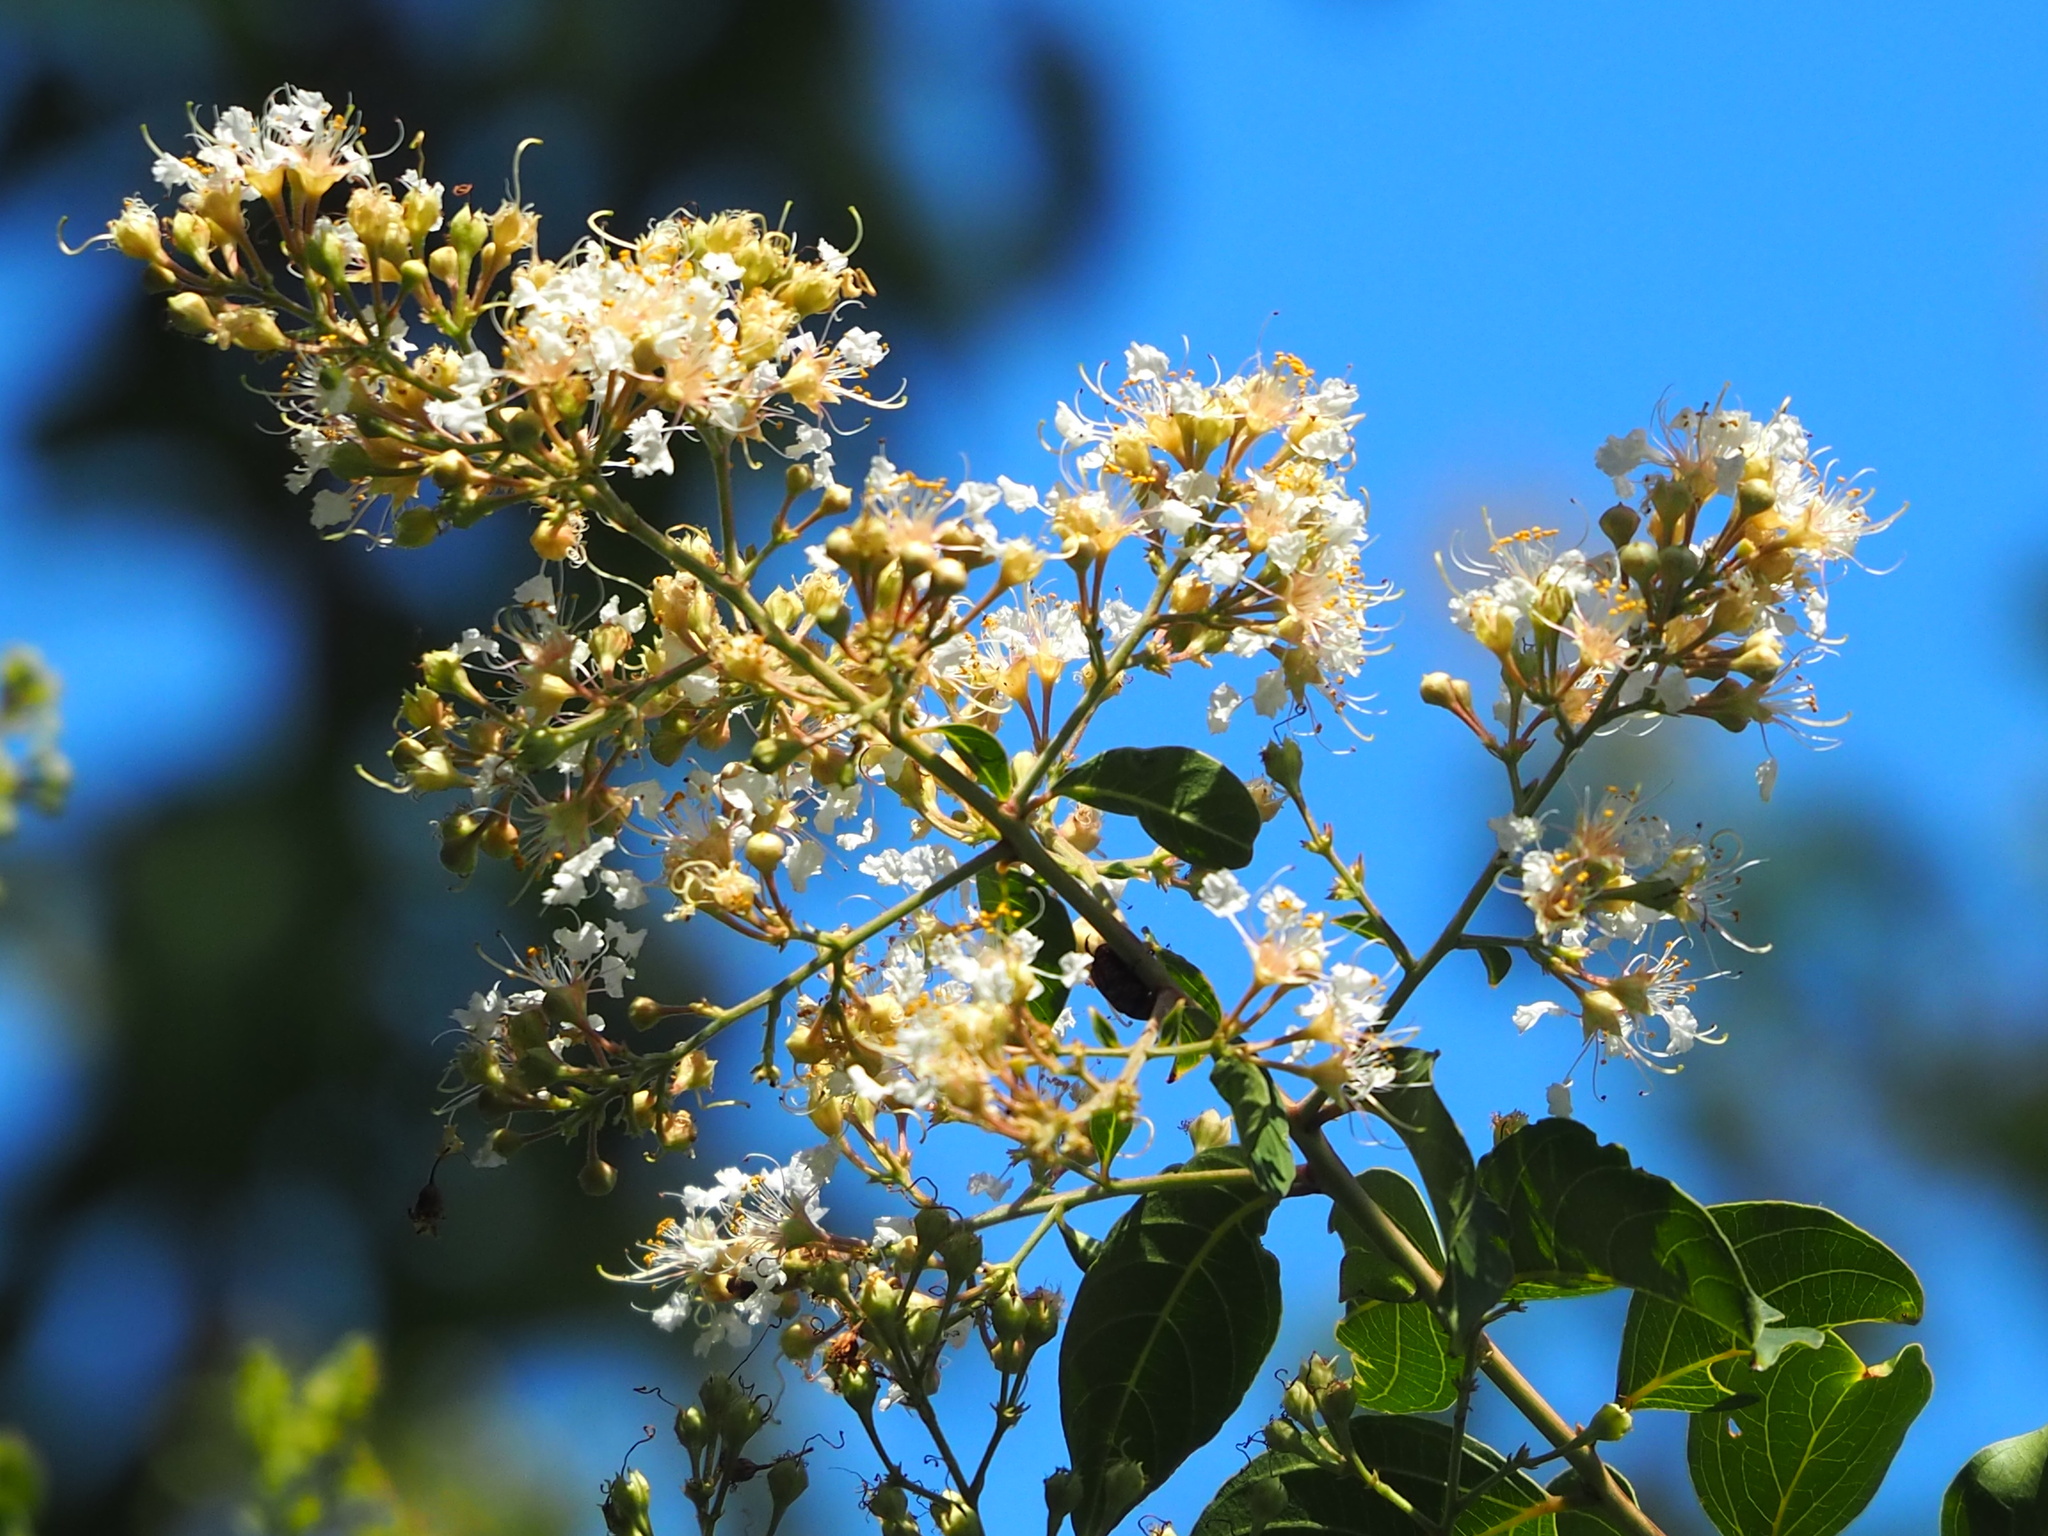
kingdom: Plantae
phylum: Tracheophyta
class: Magnoliopsida
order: Myrtales
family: Lythraceae
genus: Lagerstroemia
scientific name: Lagerstroemia subcostata
